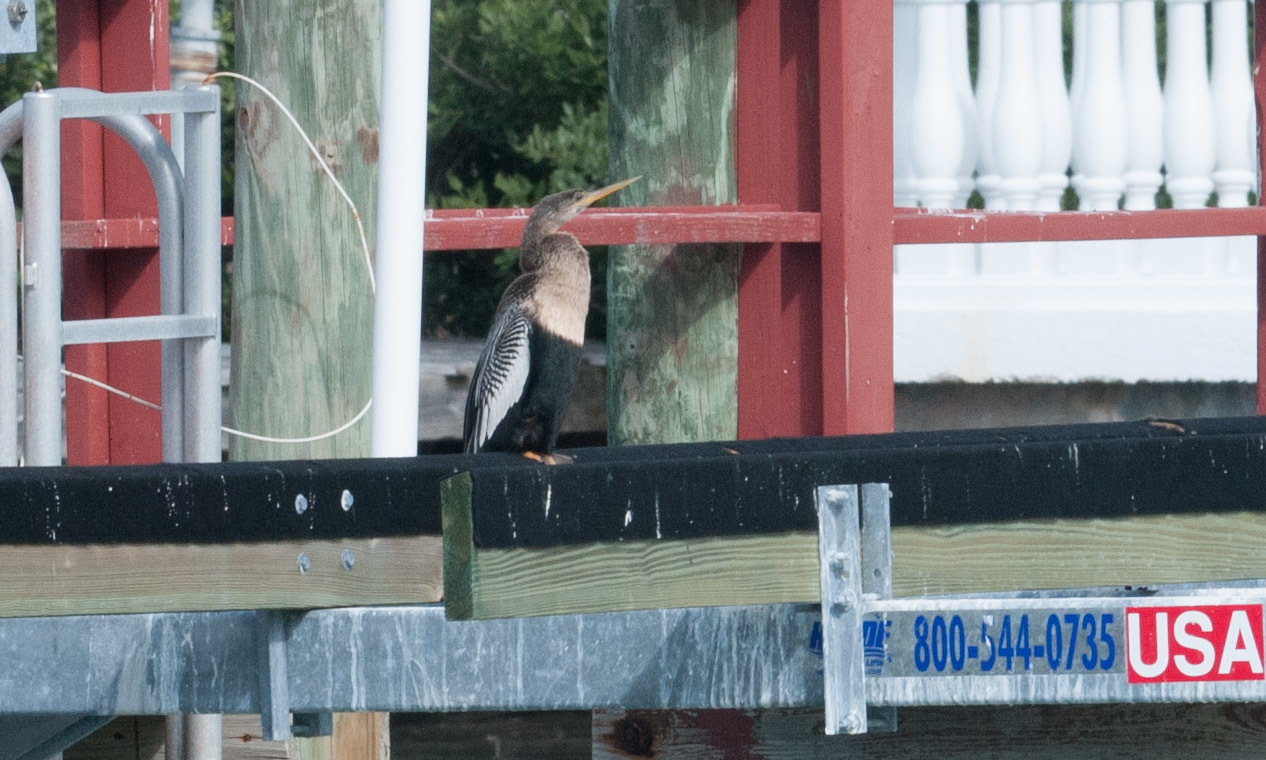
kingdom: Animalia
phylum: Chordata
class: Aves
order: Suliformes
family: Anhingidae
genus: Anhinga
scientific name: Anhinga anhinga
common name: Anhinga
